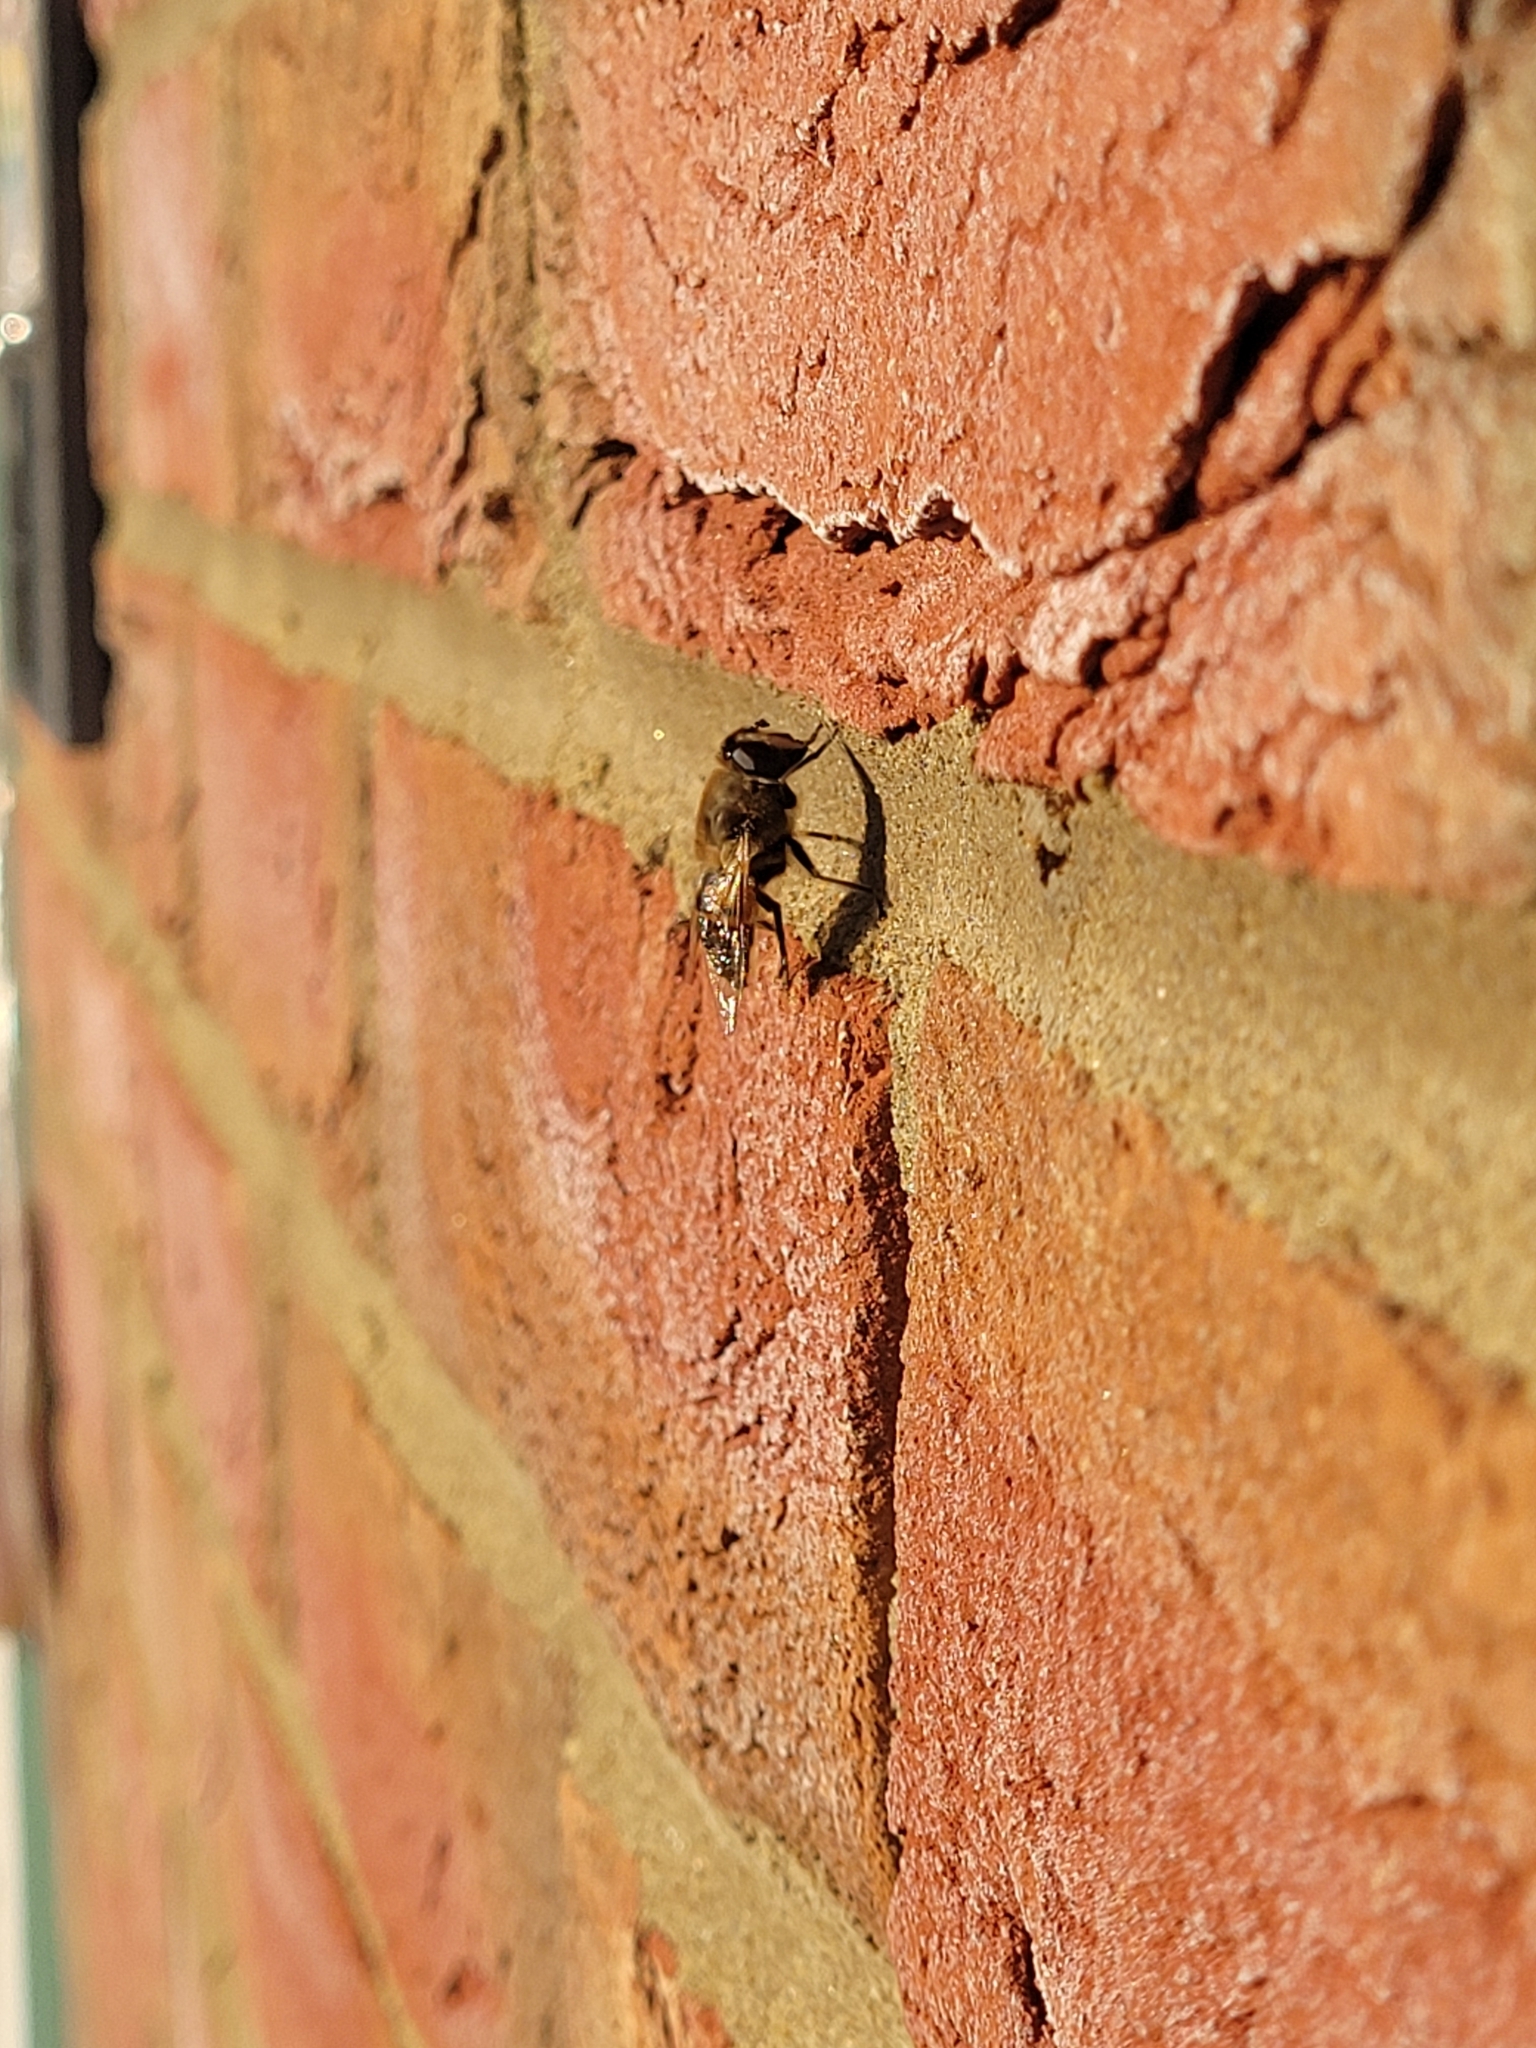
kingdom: Animalia
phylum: Arthropoda
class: Insecta
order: Diptera
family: Syrphidae
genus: Eristalis
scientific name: Eristalis tenax
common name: Drone fly
